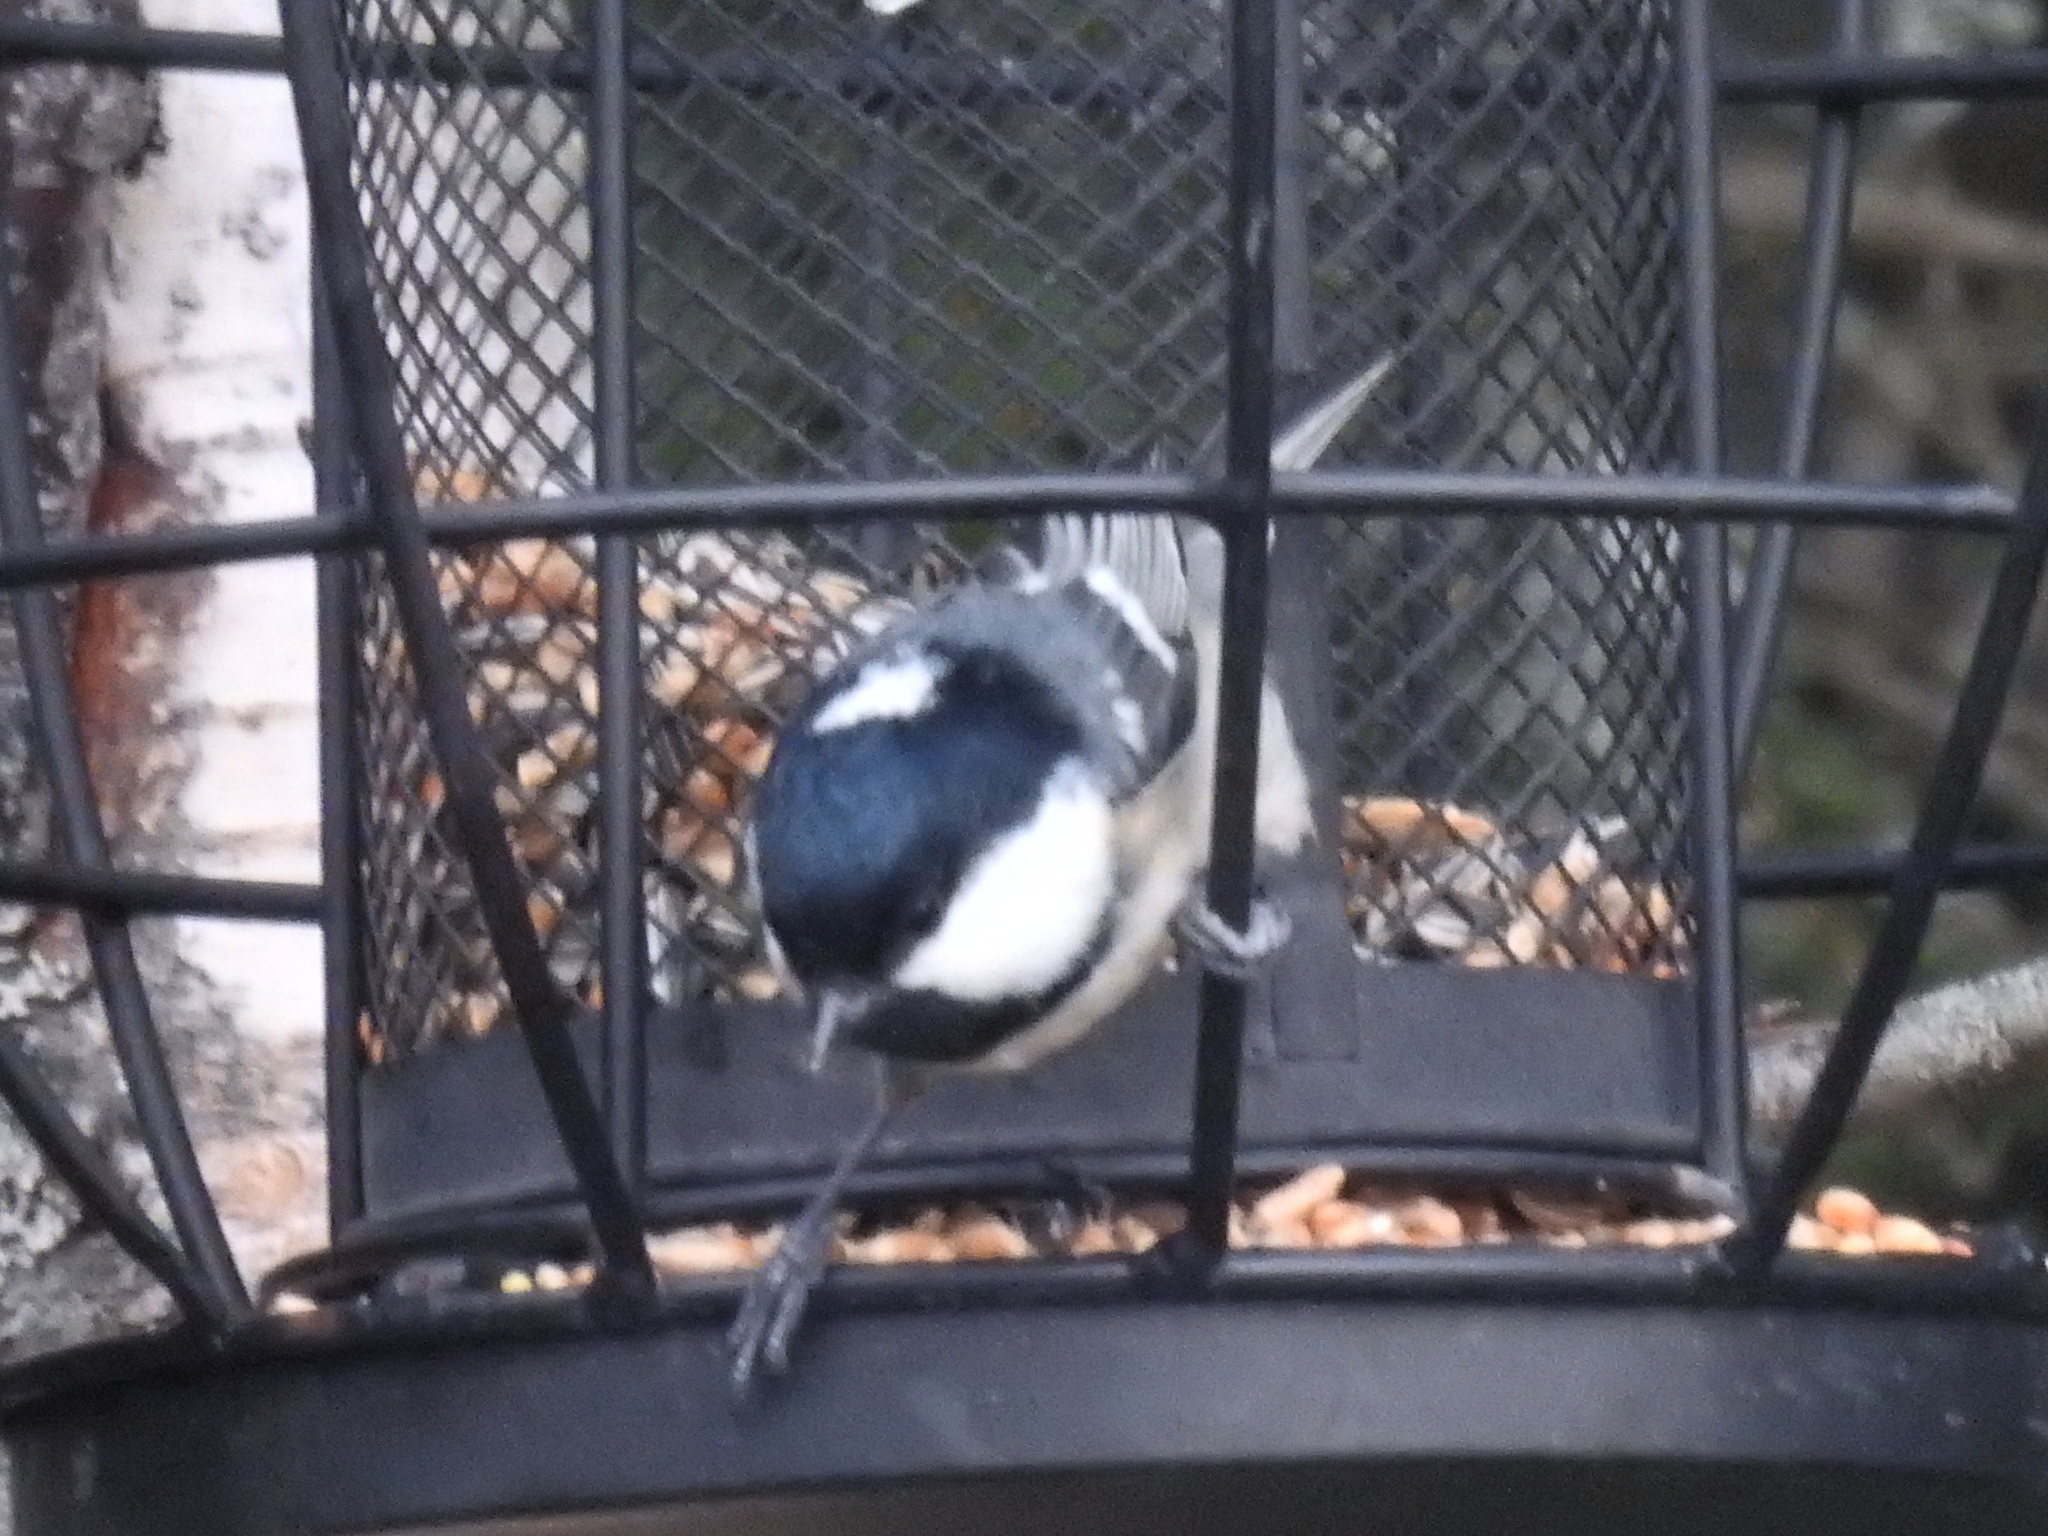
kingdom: Animalia
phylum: Chordata
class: Aves
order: Passeriformes
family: Paridae
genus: Periparus
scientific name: Periparus ater
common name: Coal tit
